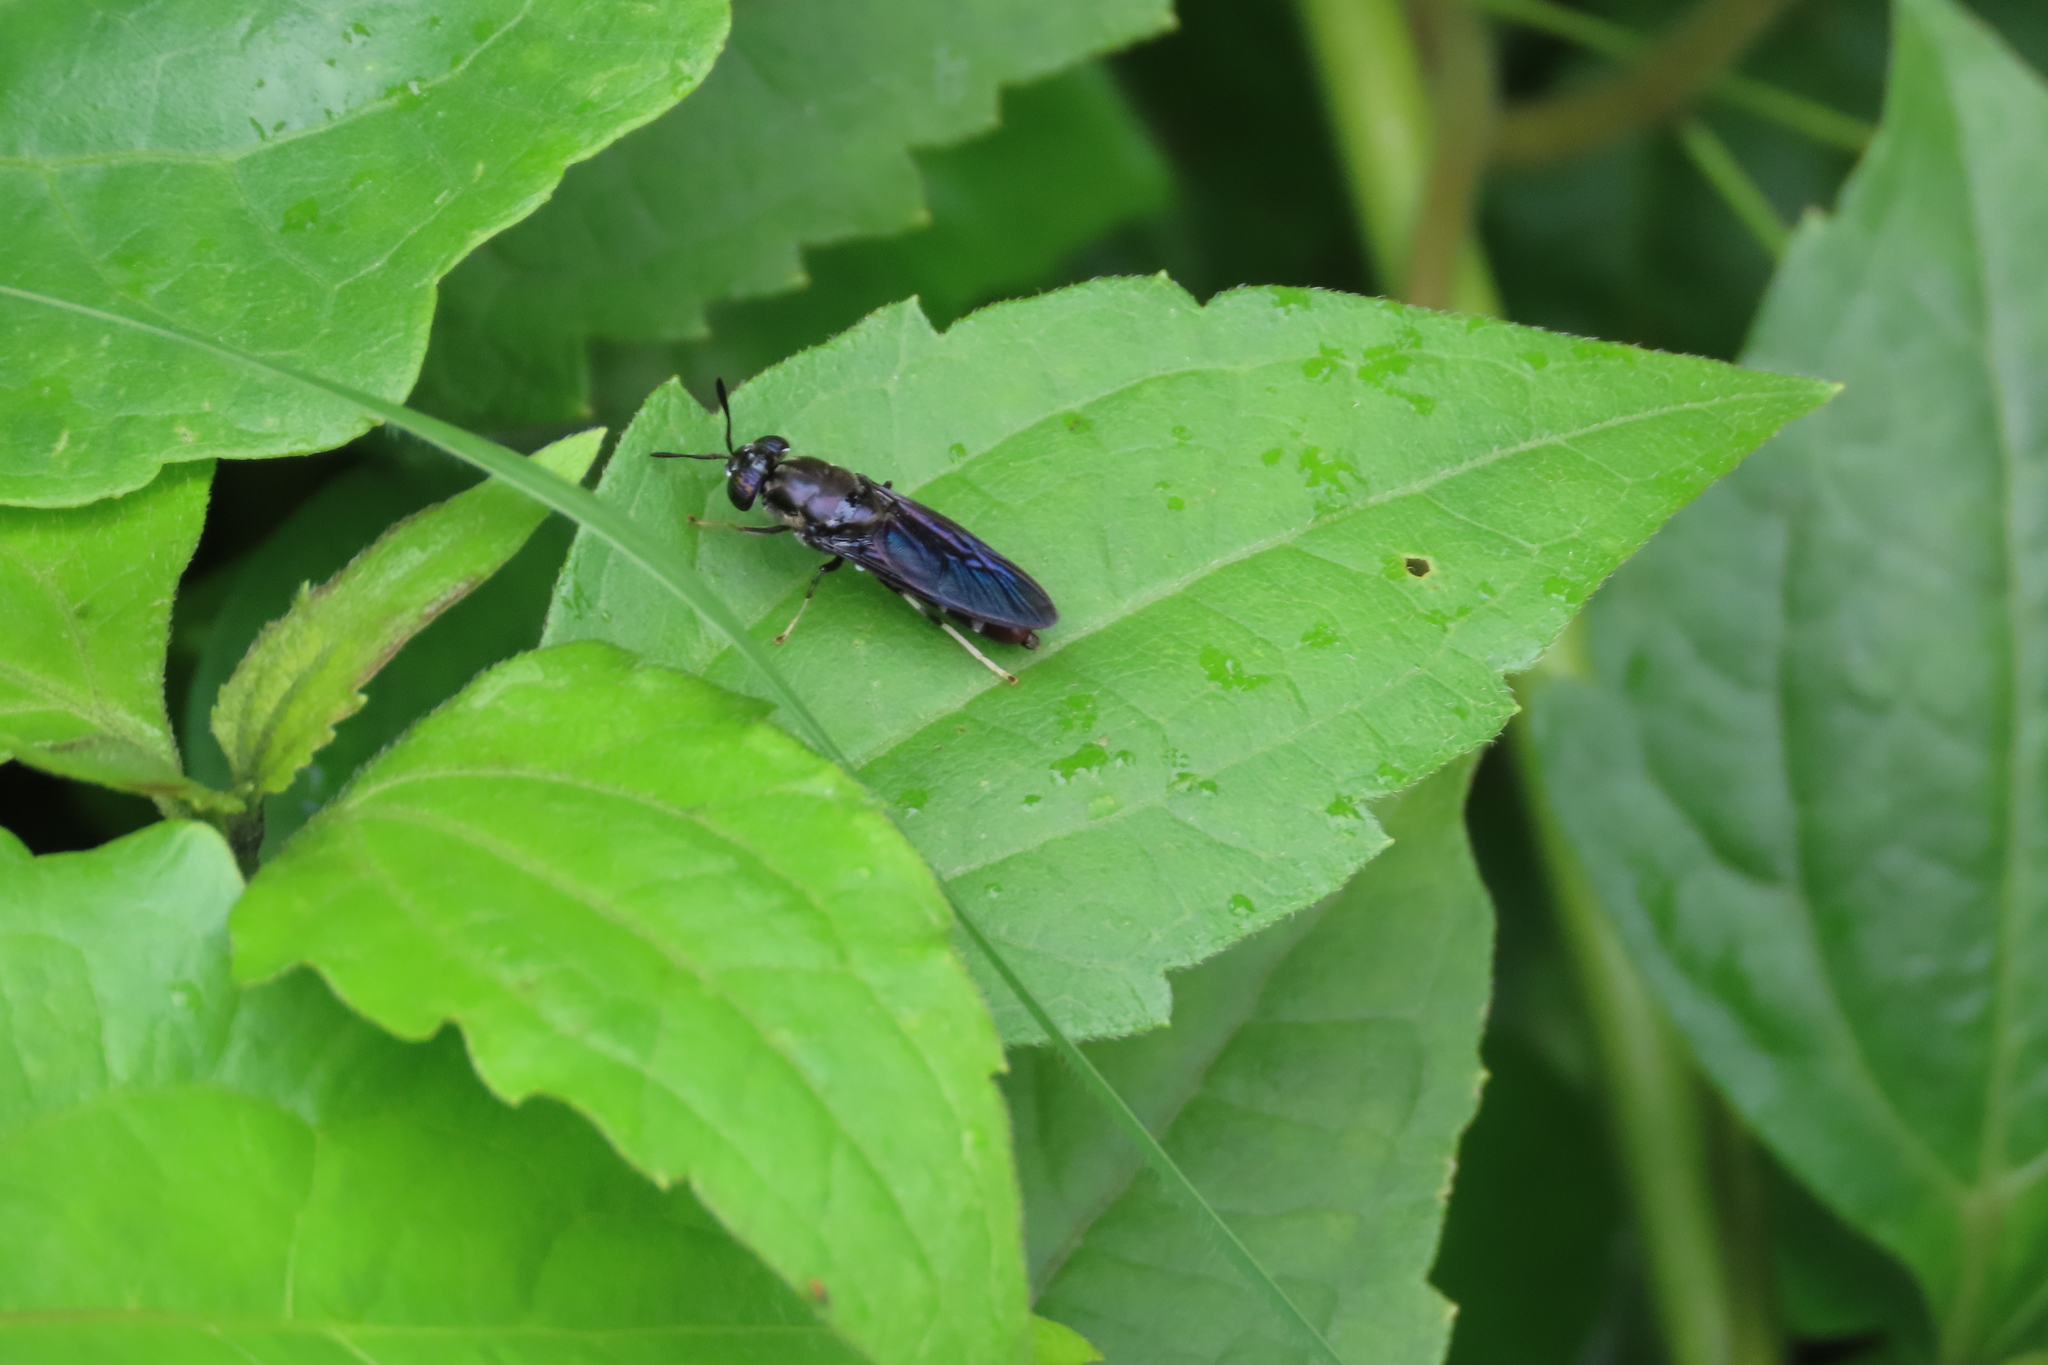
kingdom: Animalia
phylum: Arthropoda
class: Insecta
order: Diptera
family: Stratiomyidae
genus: Hermetia
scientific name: Hermetia illucens
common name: Black soldier fly
